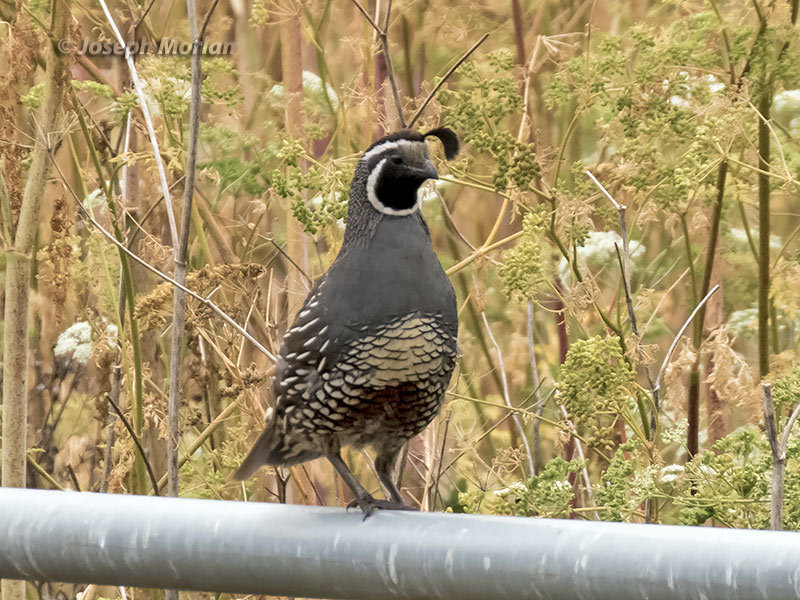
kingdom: Animalia
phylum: Chordata
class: Aves
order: Galliformes
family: Odontophoridae
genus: Callipepla
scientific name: Callipepla californica
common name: California quail
